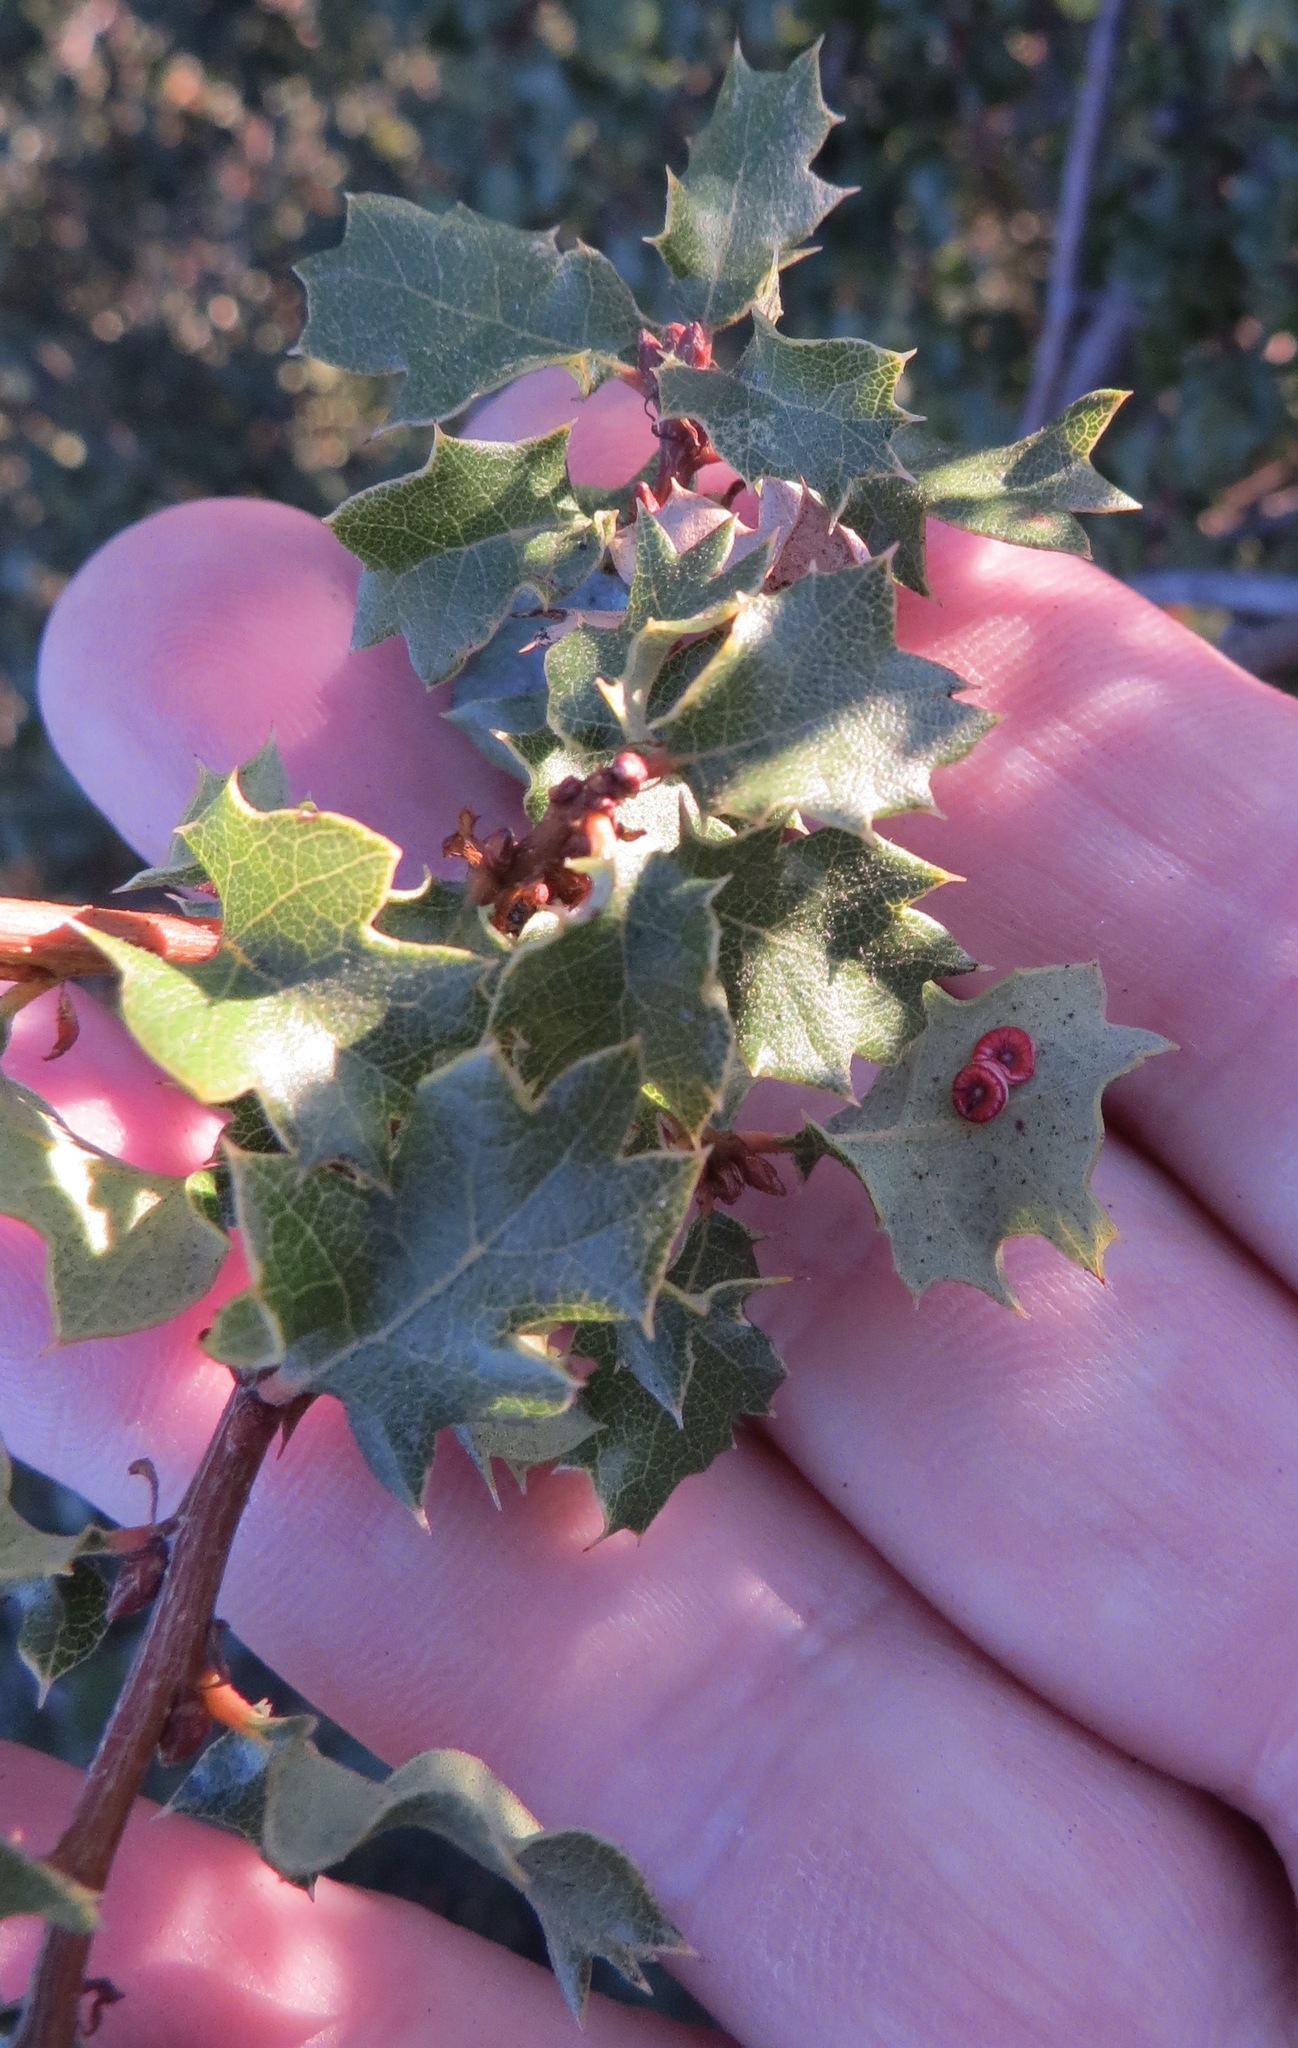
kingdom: Animalia
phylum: Arthropoda
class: Insecta
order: Hymenoptera
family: Cynipidae
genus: Andricus
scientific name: Andricus
